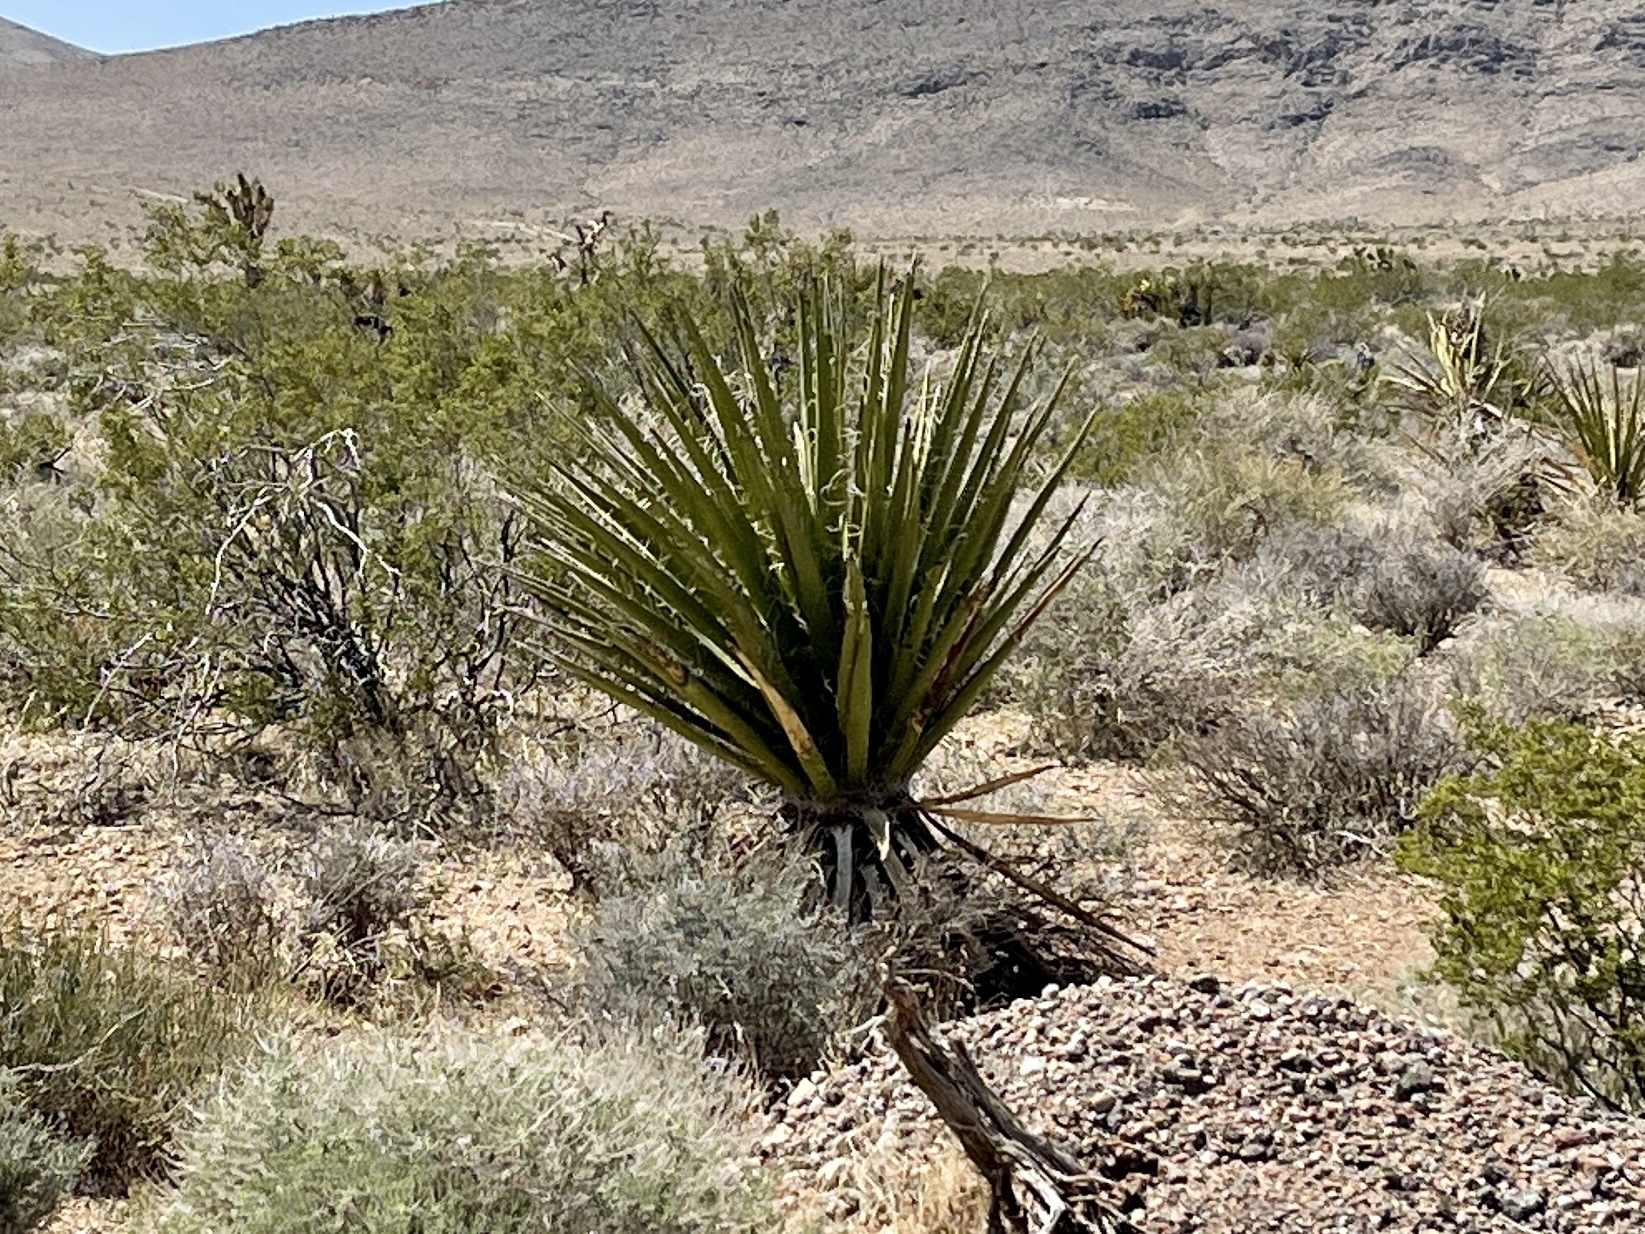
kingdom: Plantae
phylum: Tracheophyta
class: Liliopsida
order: Asparagales
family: Asparagaceae
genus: Yucca
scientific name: Yucca schidigera
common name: Mojave yucca
